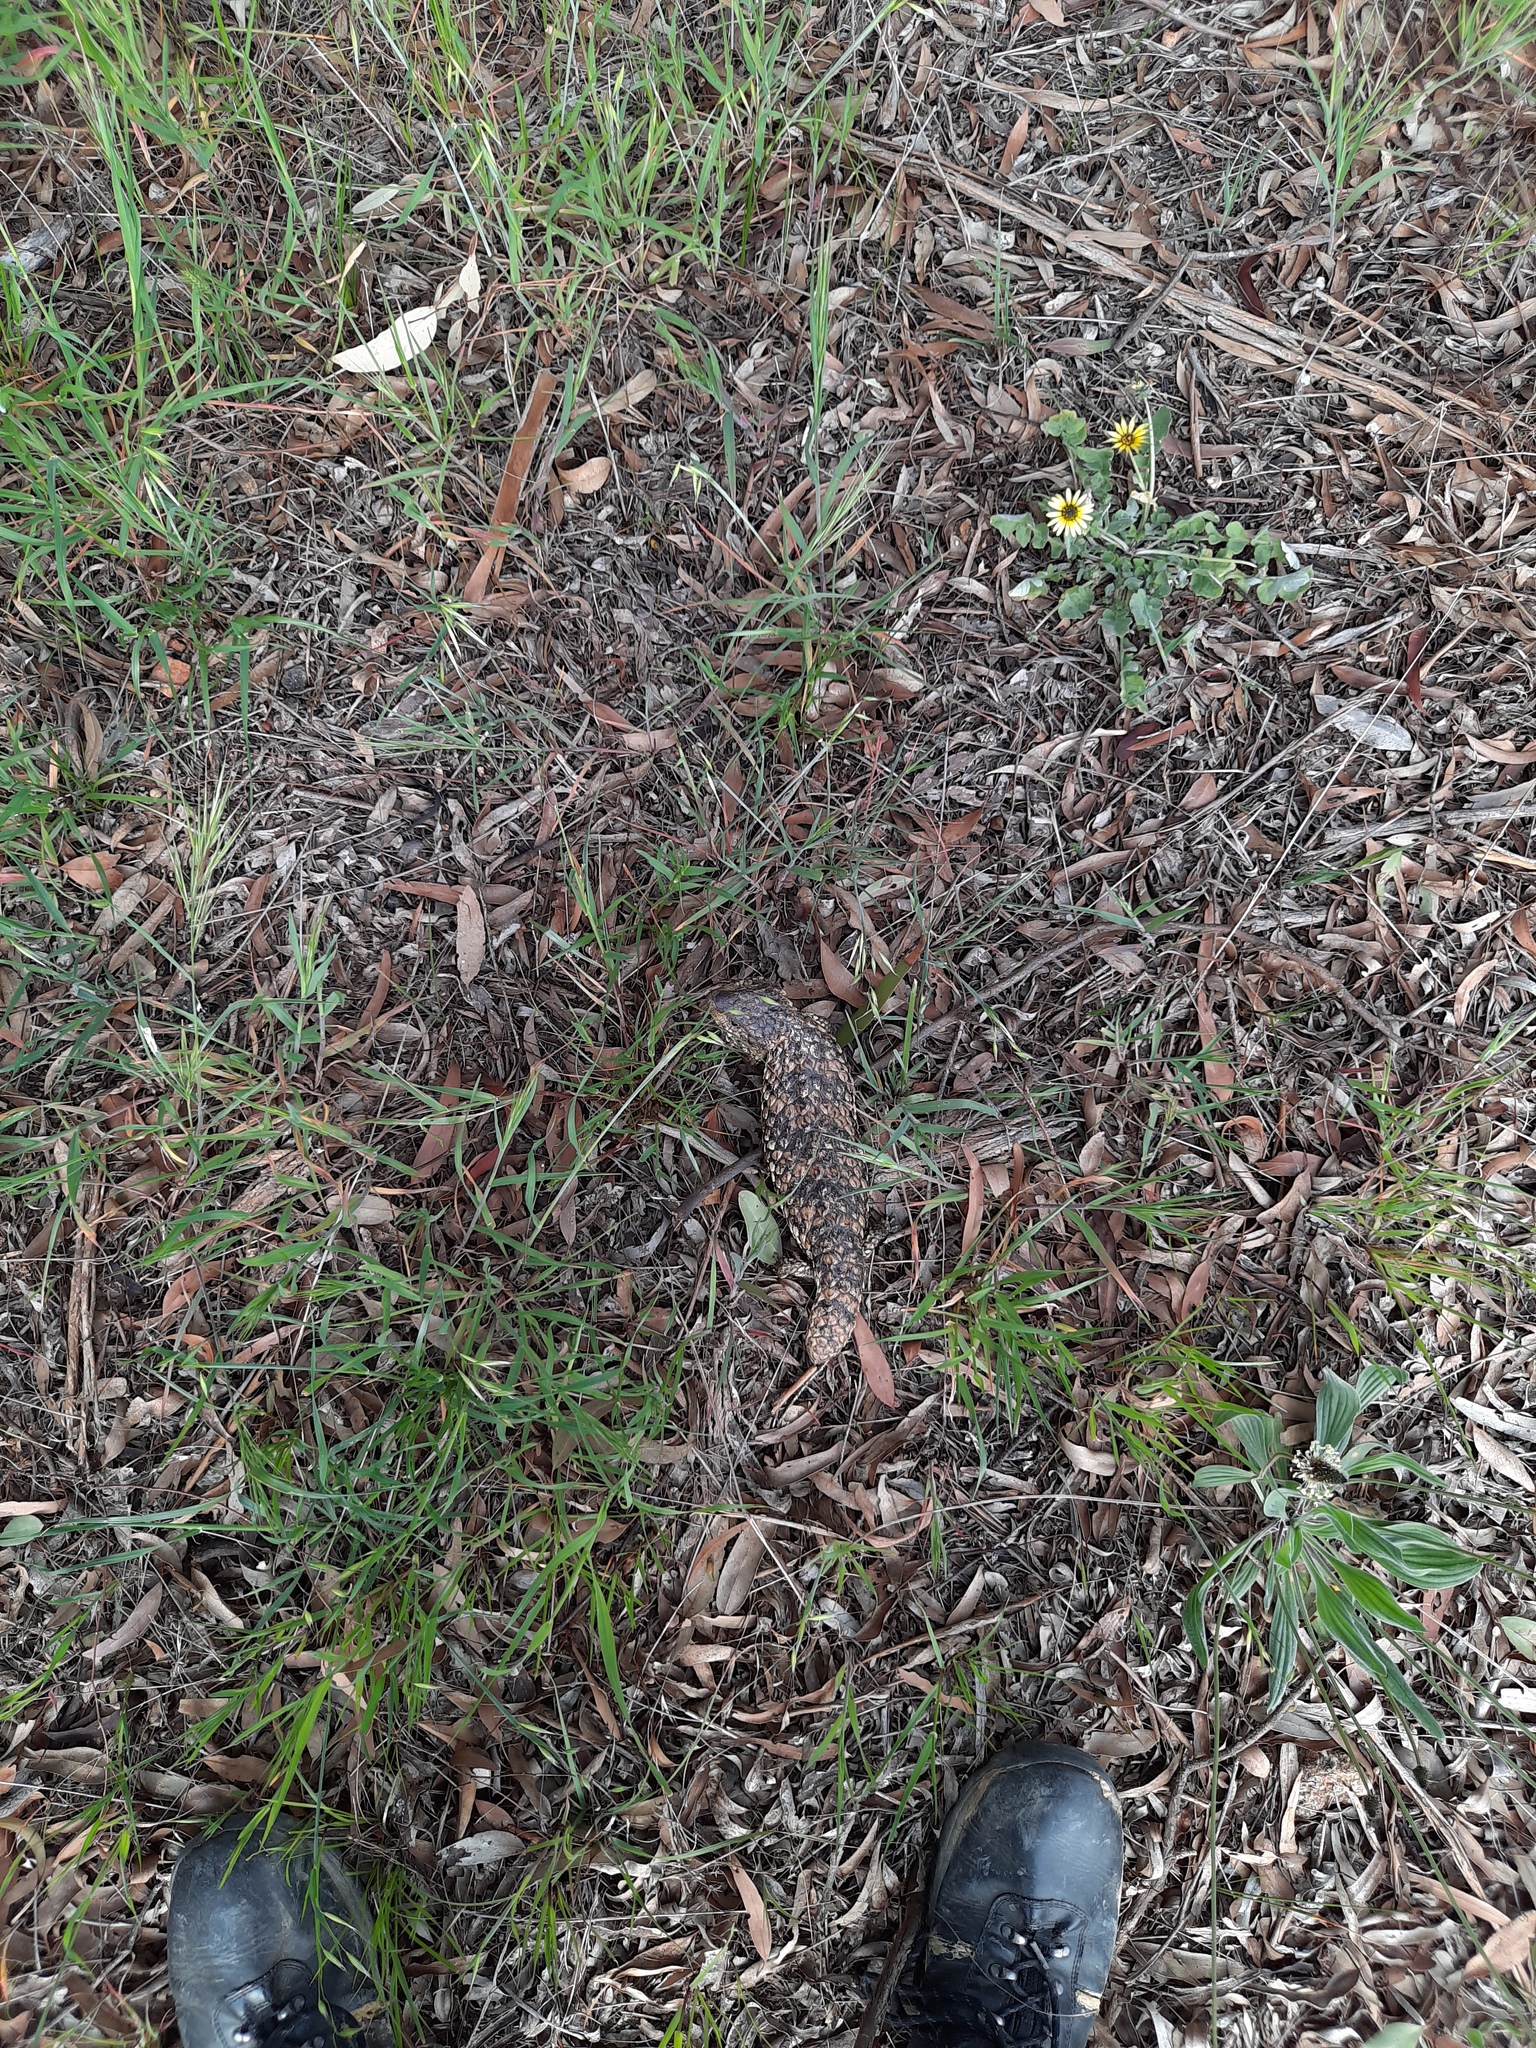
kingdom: Animalia
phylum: Chordata
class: Squamata
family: Scincidae
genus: Tiliqua
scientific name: Tiliqua rugosa
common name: Pinecone lizard
